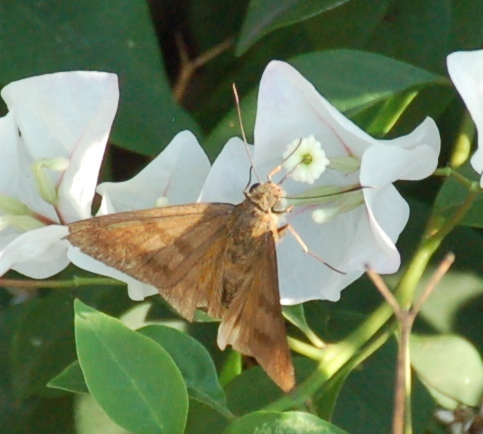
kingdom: Animalia
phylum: Arthropoda
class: Insecta
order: Lepidoptera
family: Hesperiidae
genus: Astraptes
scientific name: Astraptes anaphus
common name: Yellow-tipped flasher
